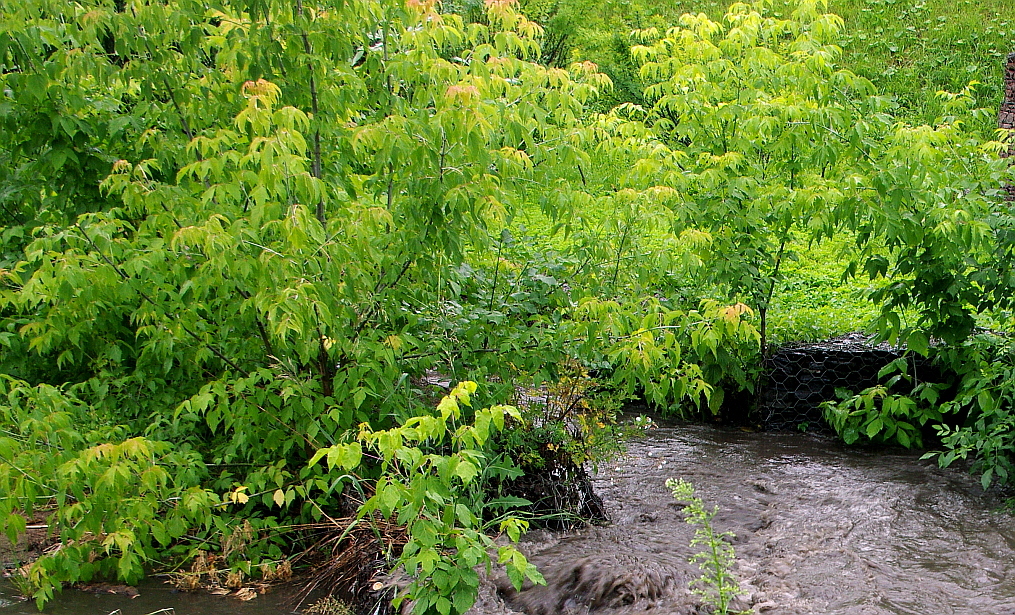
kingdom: Plantae
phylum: Tracheophyta
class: Magnoliopsida
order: Sapindales
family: Sapindaceae
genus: Acer
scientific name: Acer negundo
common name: Ashleaf maple
